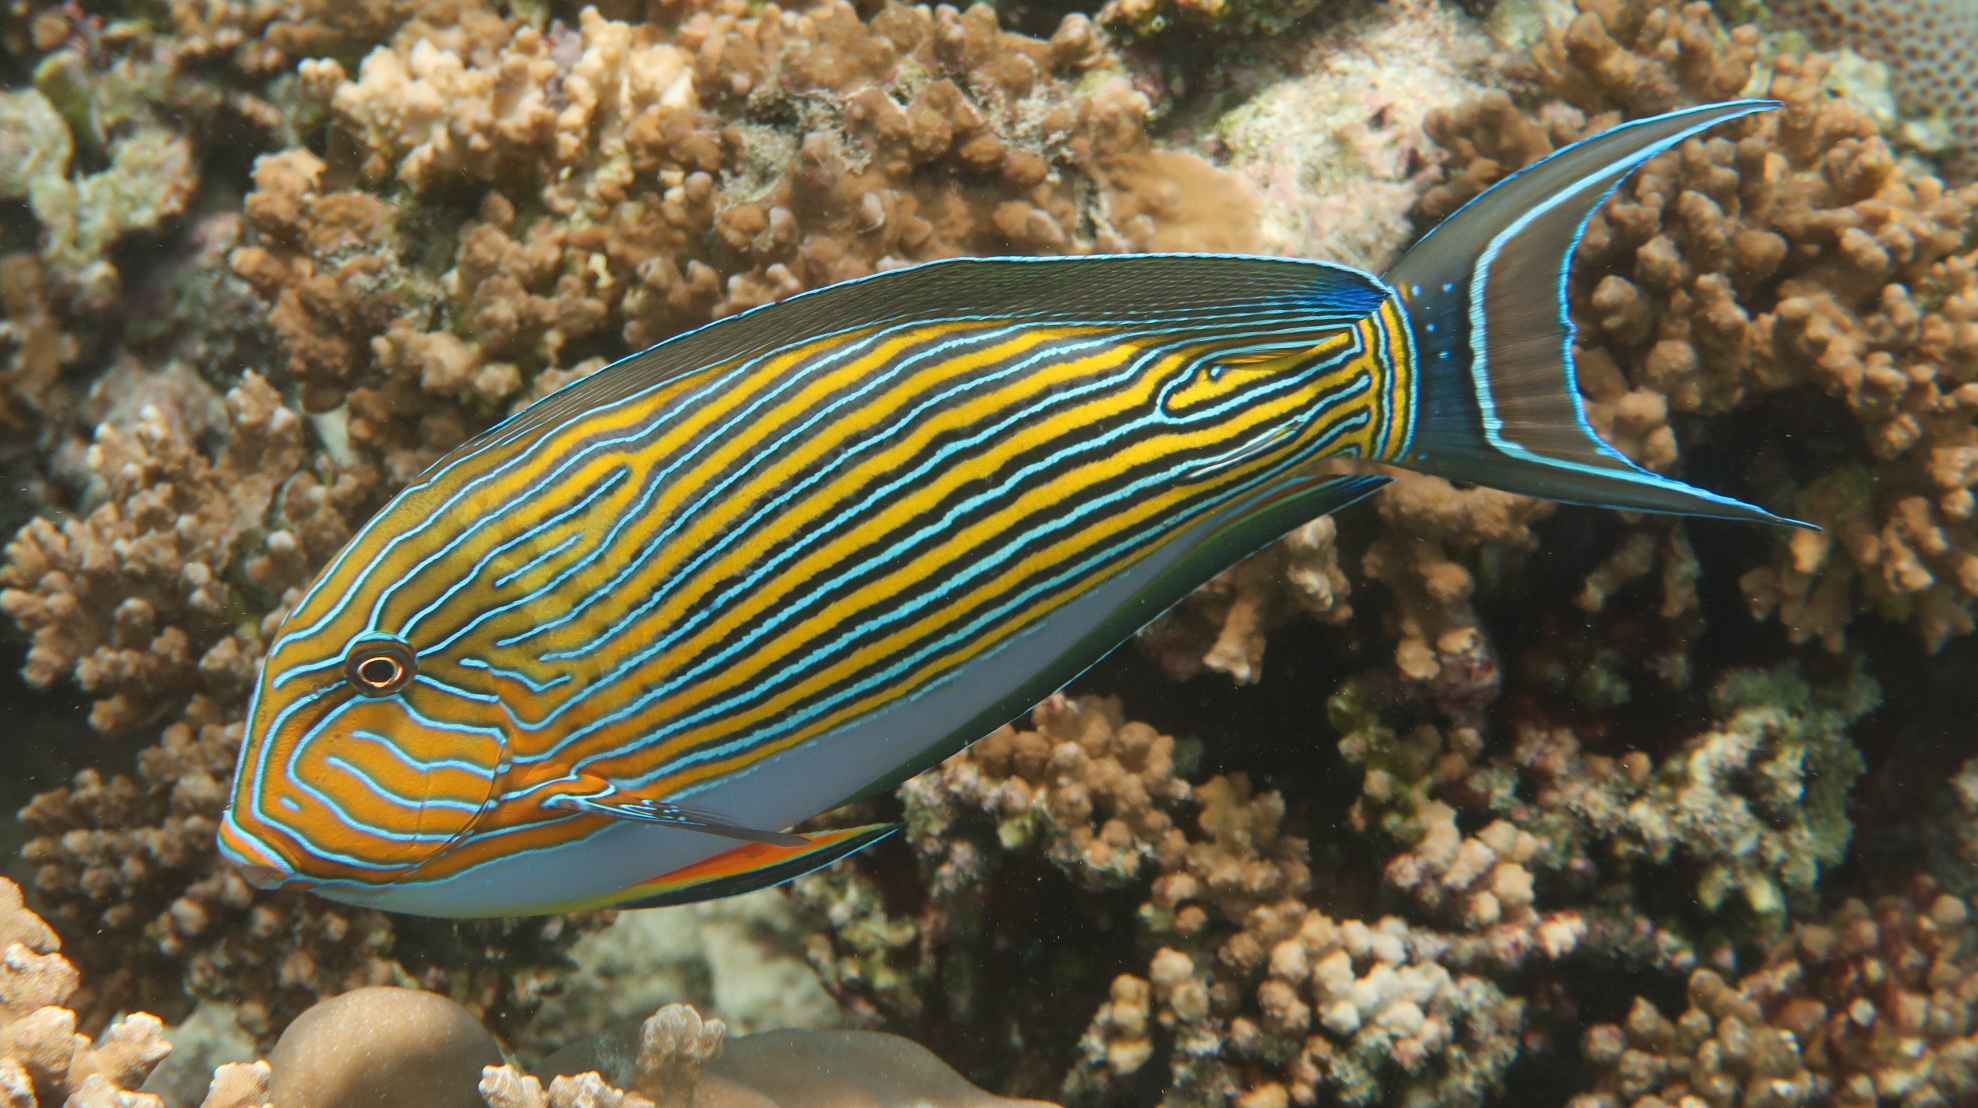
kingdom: Animalia
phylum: Chordata
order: Perciformes
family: Acanthuridae
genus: Acanthurus
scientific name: Acanthurus lineatus
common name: Striped surgeonfish
